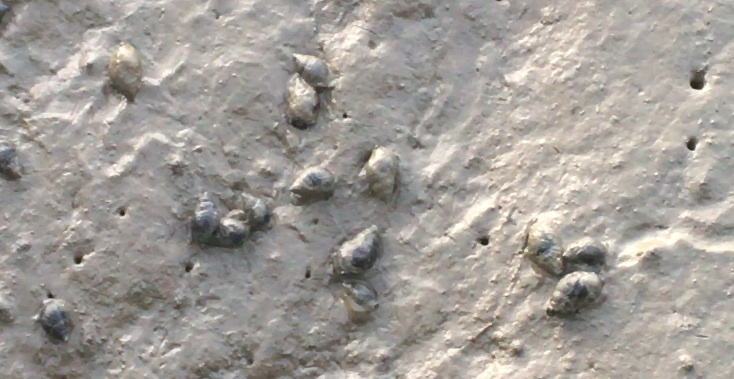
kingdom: Animalia
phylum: Mollusca
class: Gastropoda
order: Neogastropoda
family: Nassariidae
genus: Ilyanassa
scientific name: Ilyanassa obsoleta
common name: Eastern mudsnail
